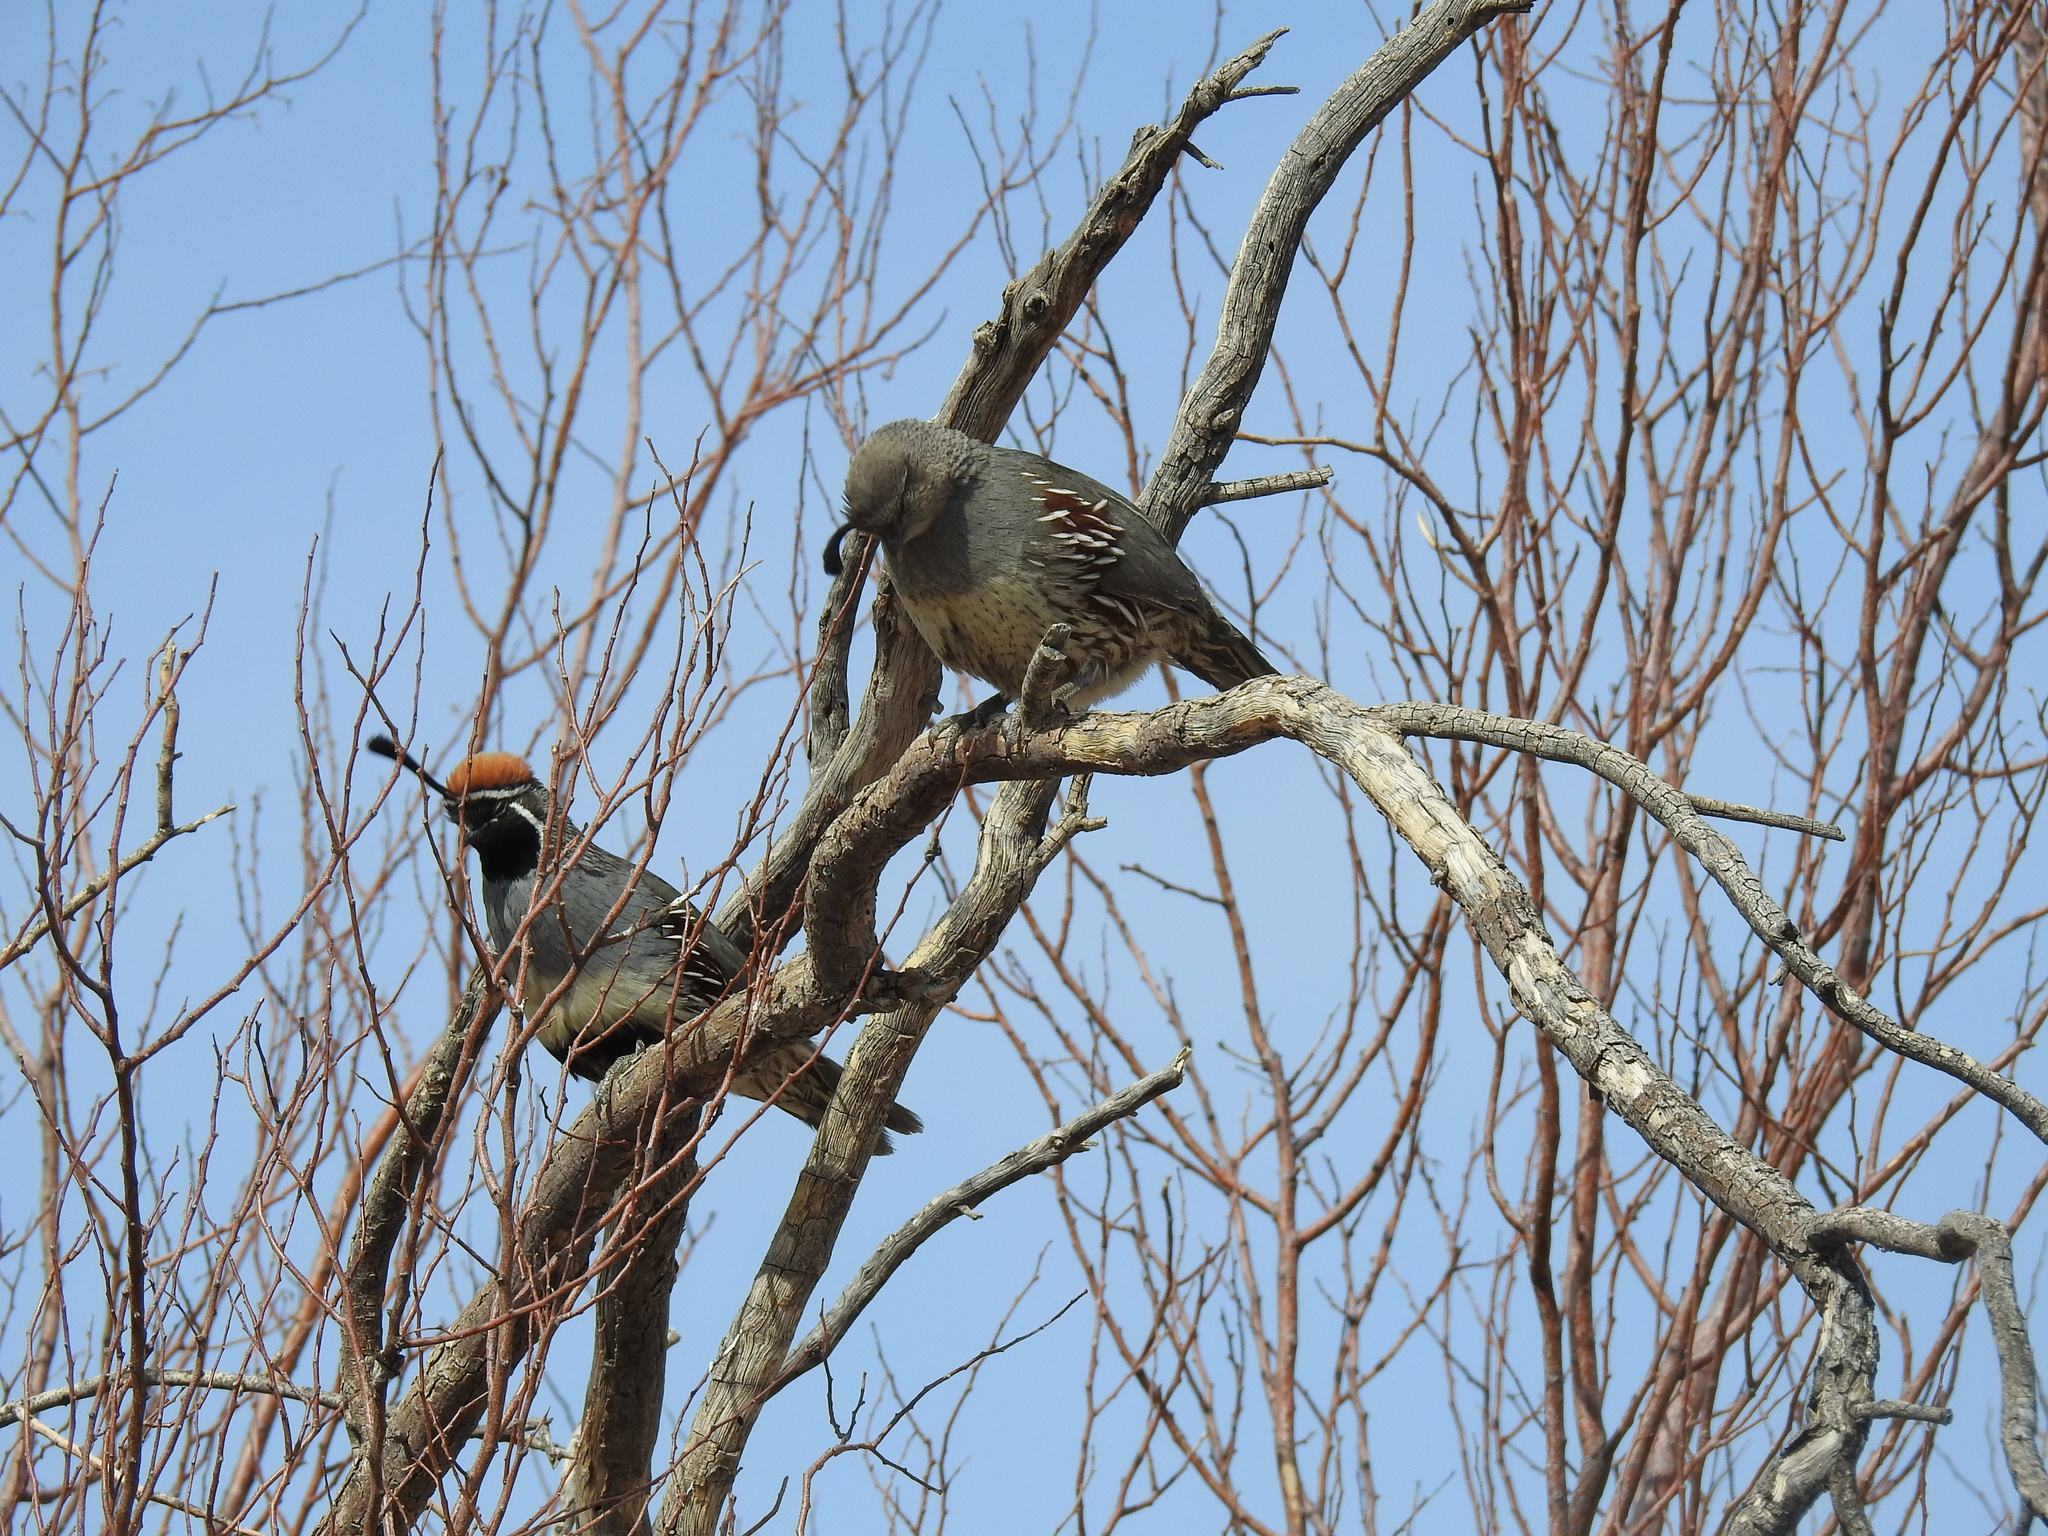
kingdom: Animalia
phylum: Chordata
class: Aves
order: Galliformes
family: Odontophoridae
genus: Callipepla
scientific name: Callipepla gambelii
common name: Gambel's quail
